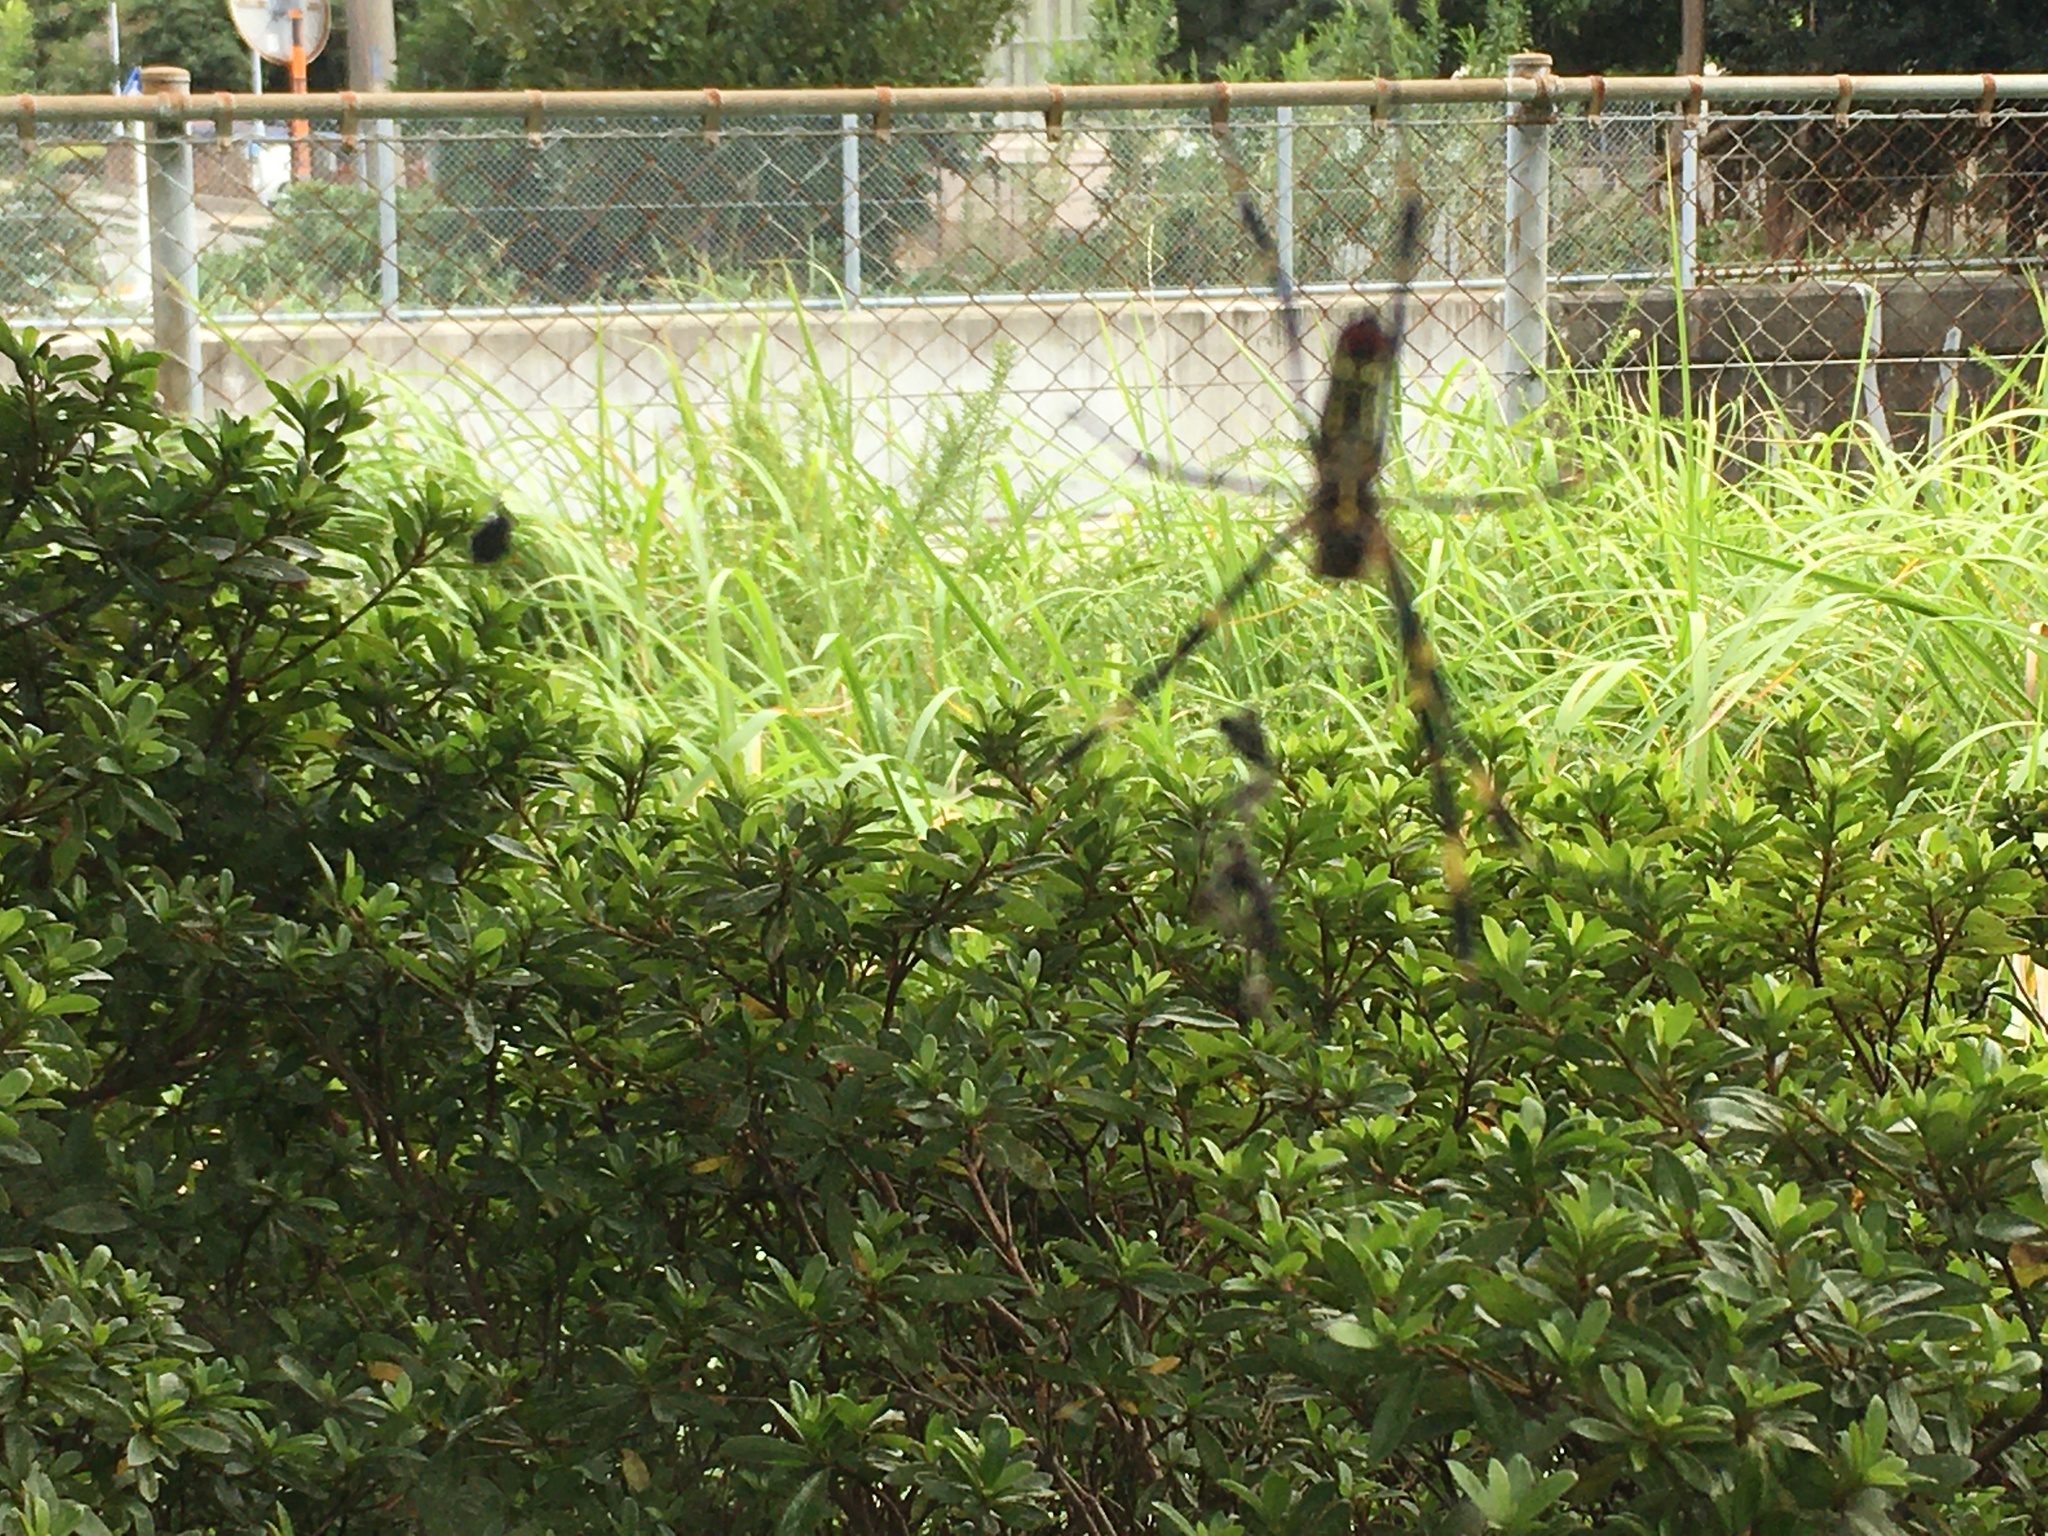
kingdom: Animalia
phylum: Arthropoda
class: Arachnida
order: Araneae
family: Araneidae
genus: Trichonephila
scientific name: Trichonephila clavata
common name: Jorō spider
